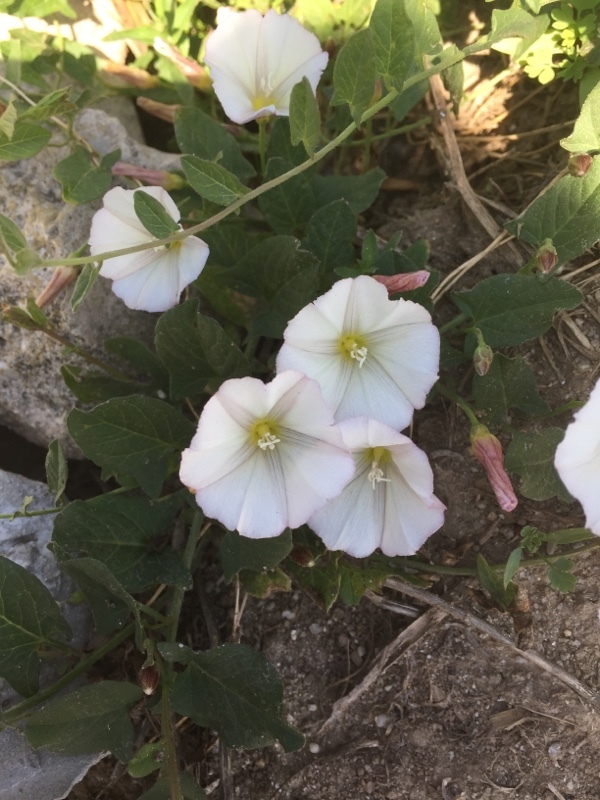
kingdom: Plantae
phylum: Tracheophyta
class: Magnoliopsida
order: Solanales
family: Convolvulaceae
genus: Convolvulus
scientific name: Convolvulus arvensis
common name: Field bindweed
